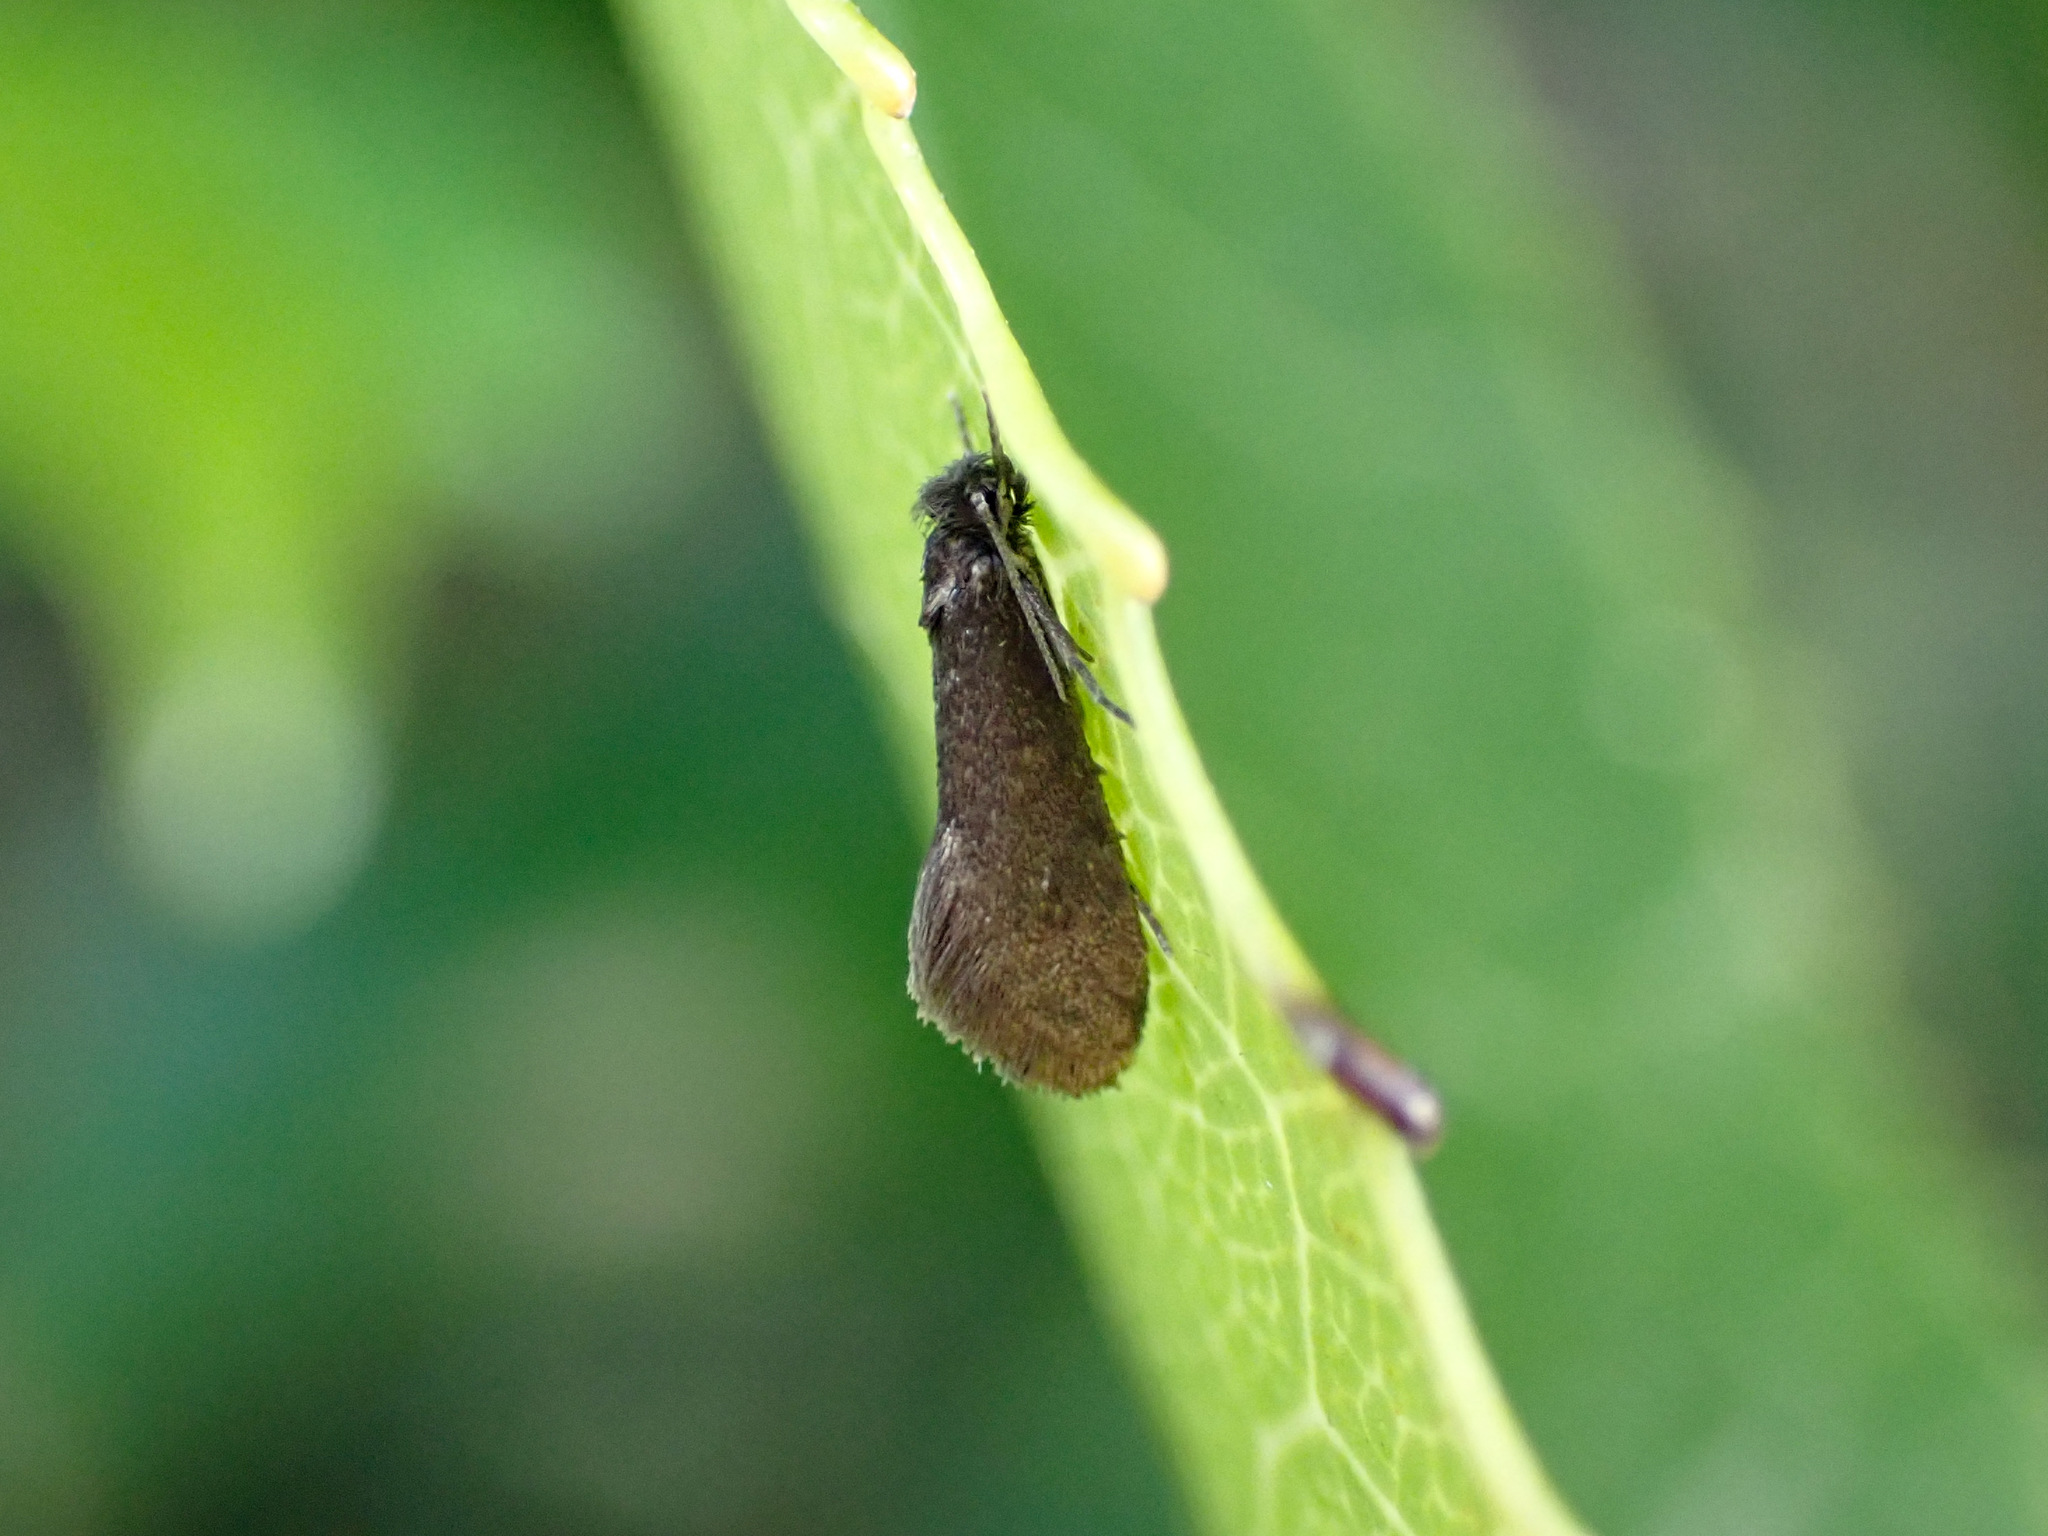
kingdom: Animalia
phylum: Arthropoda
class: Insecta
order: Lepidoptera
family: Psychidae
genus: Rhathamictis
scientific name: Rhathamictis nocturna
